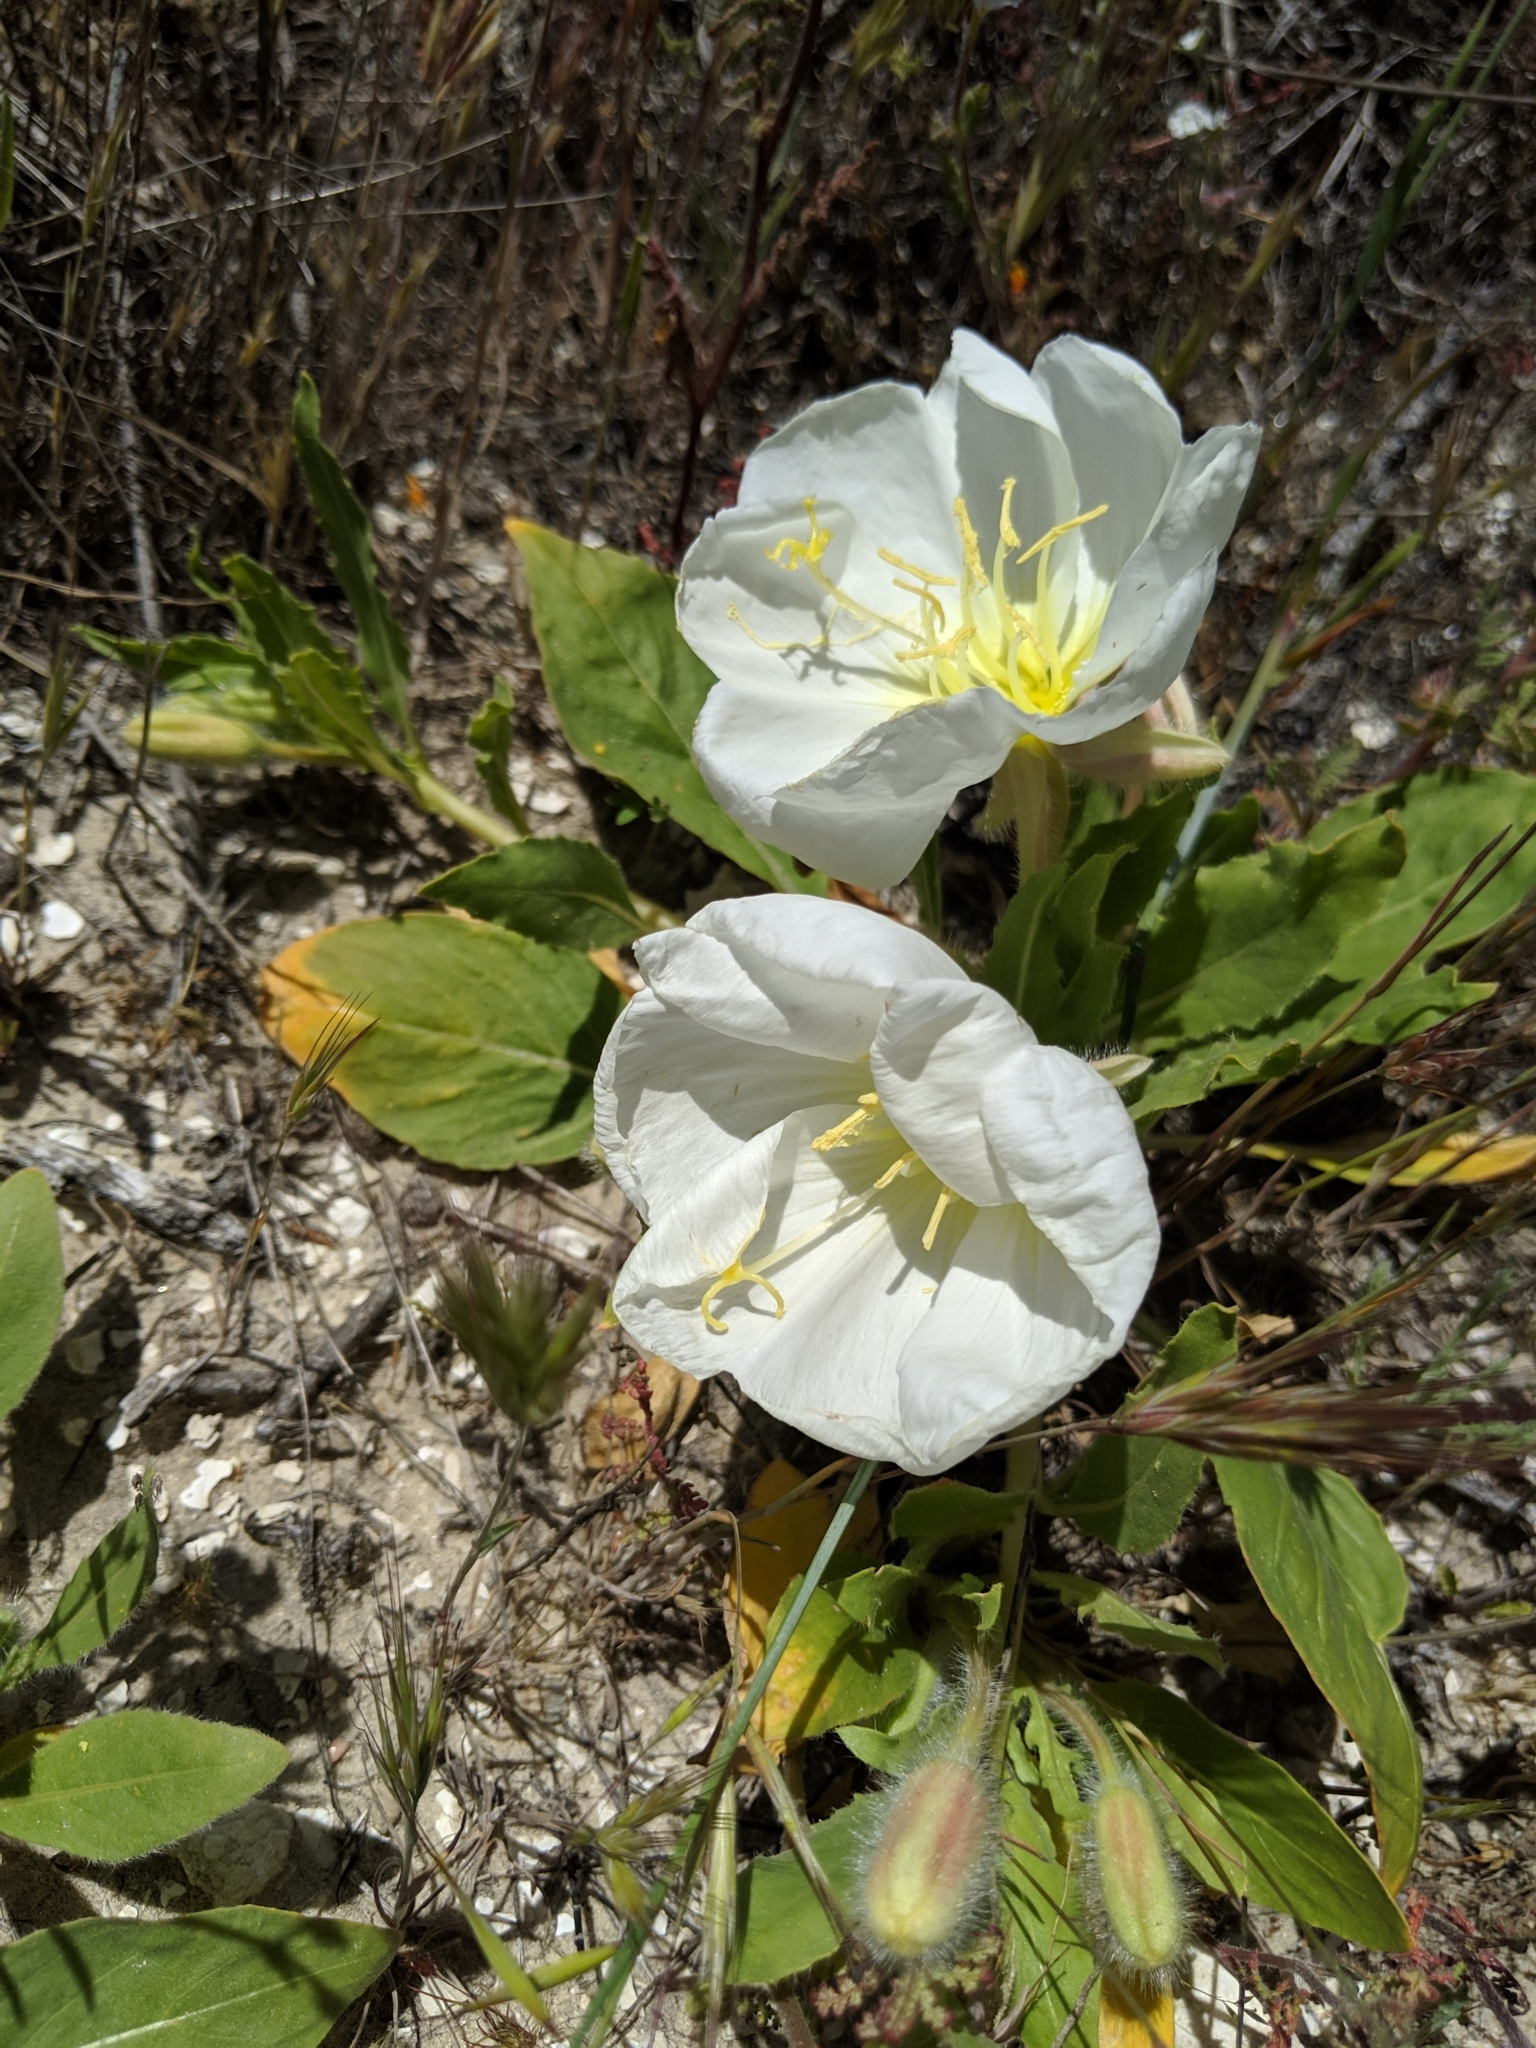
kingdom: Plantae
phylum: Tracheophyta
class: Magnoliopsida
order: Myrtales
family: Onagraceae
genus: Oenothera
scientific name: Oenothera deltoides
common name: Basket evening-primrose
